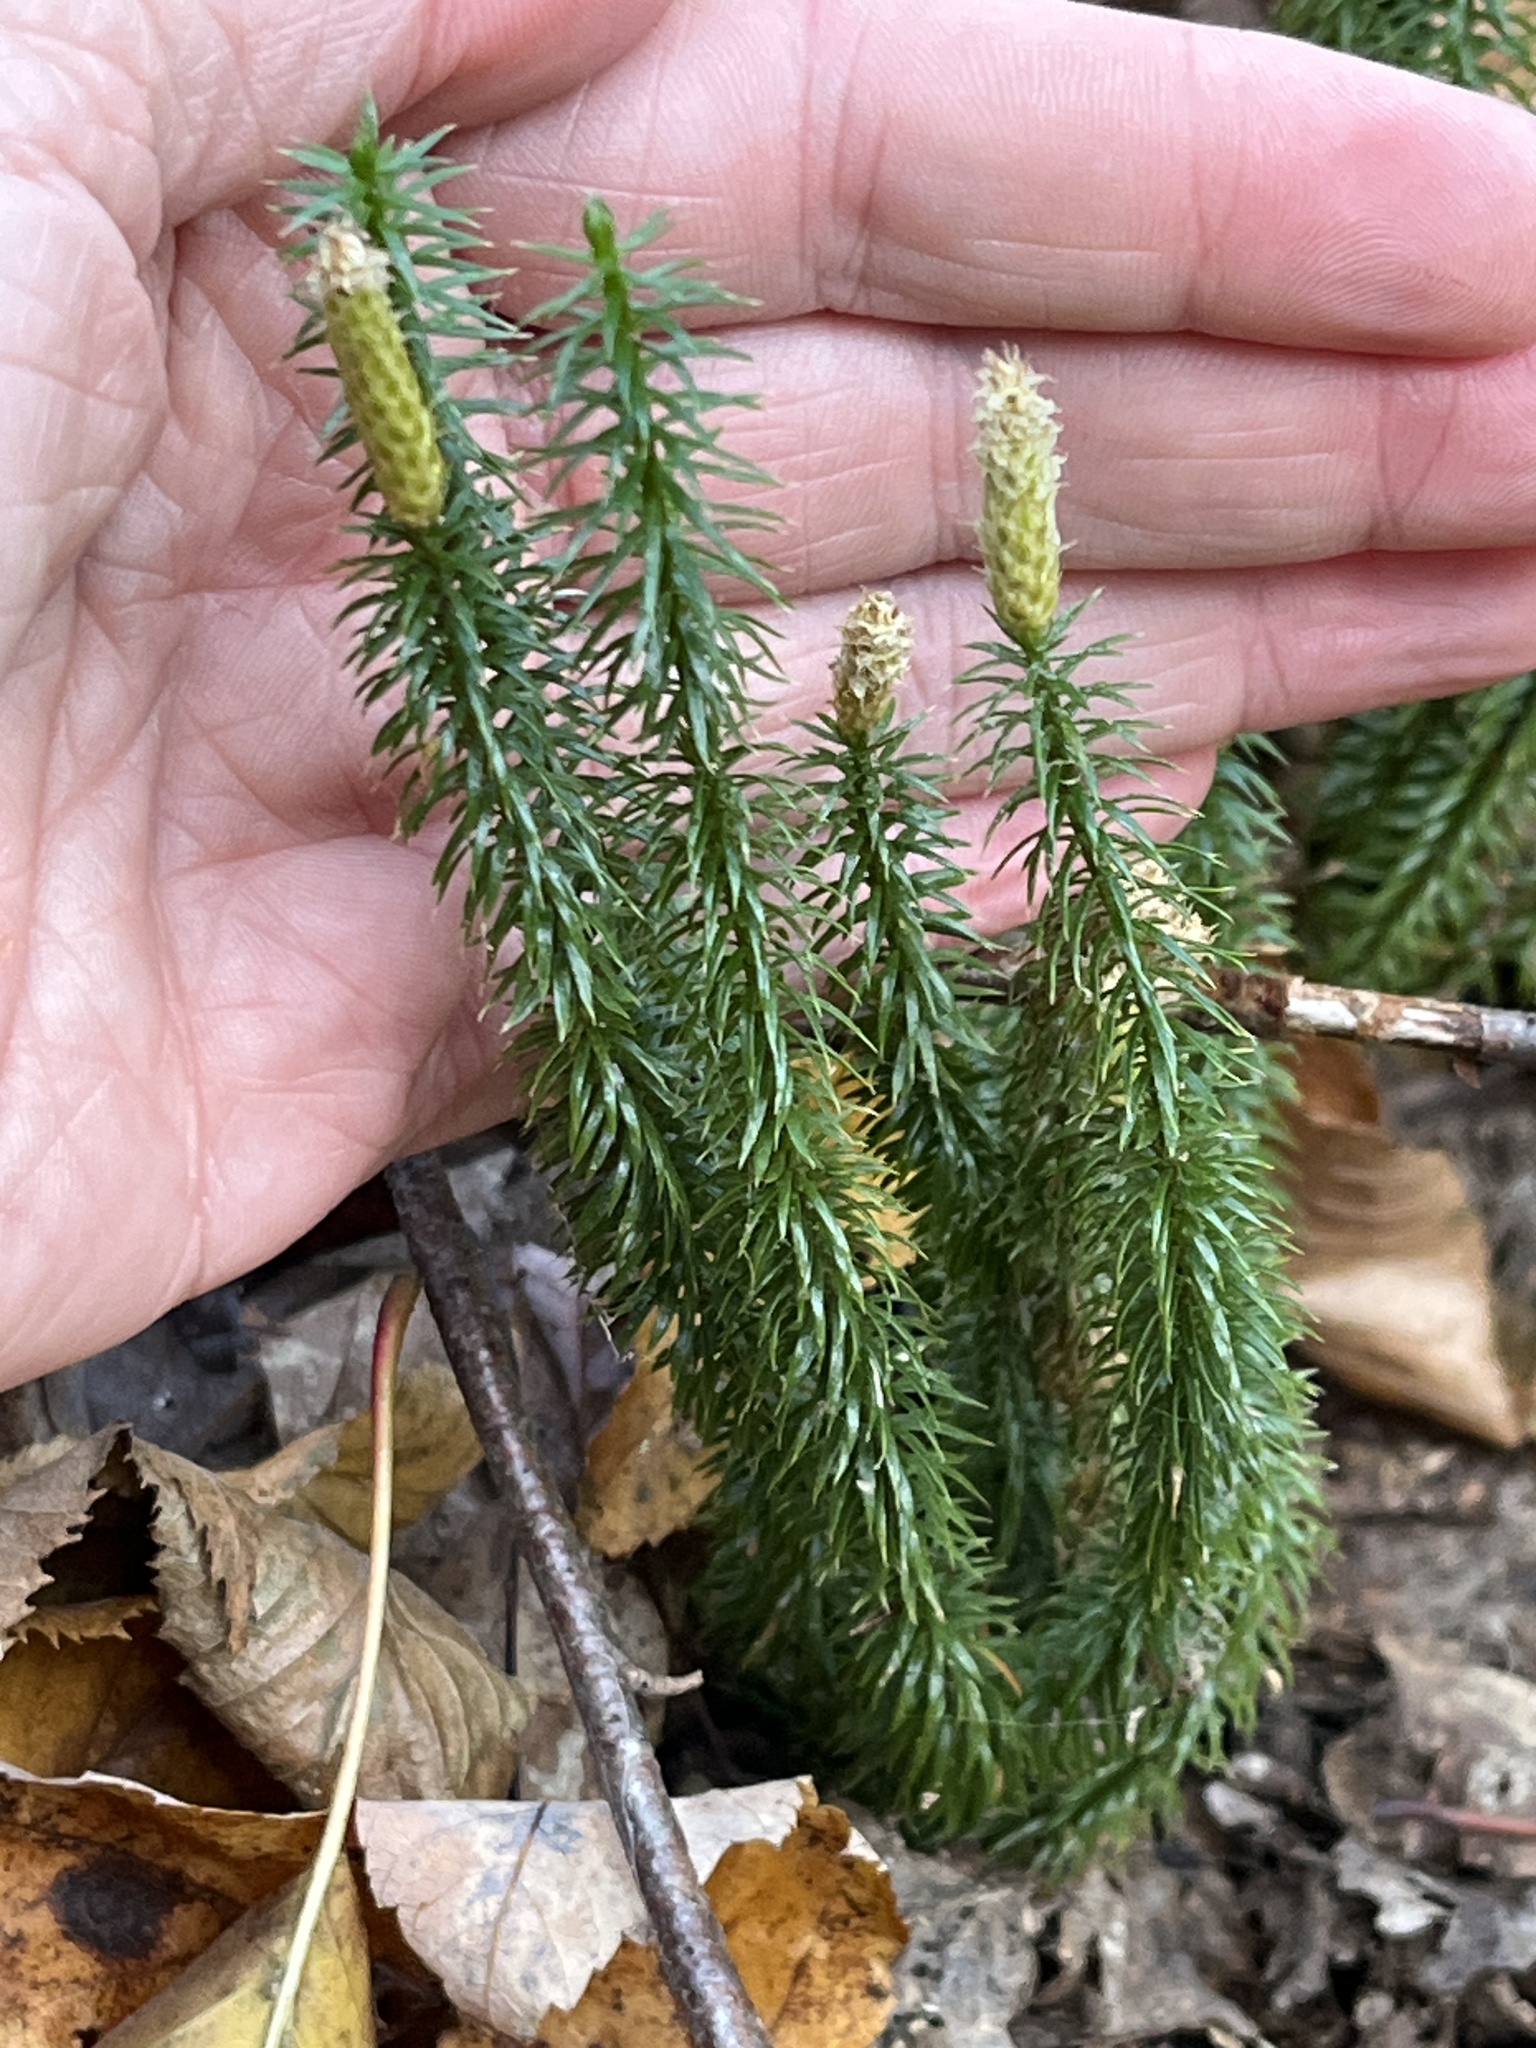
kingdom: Plantae
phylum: Tracheophyta
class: Lycopodiopsida
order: Lycopodiales
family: Lycopodiaceae
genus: Spinulum
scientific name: Spinulum annotinum
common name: Interrupted club-moss
